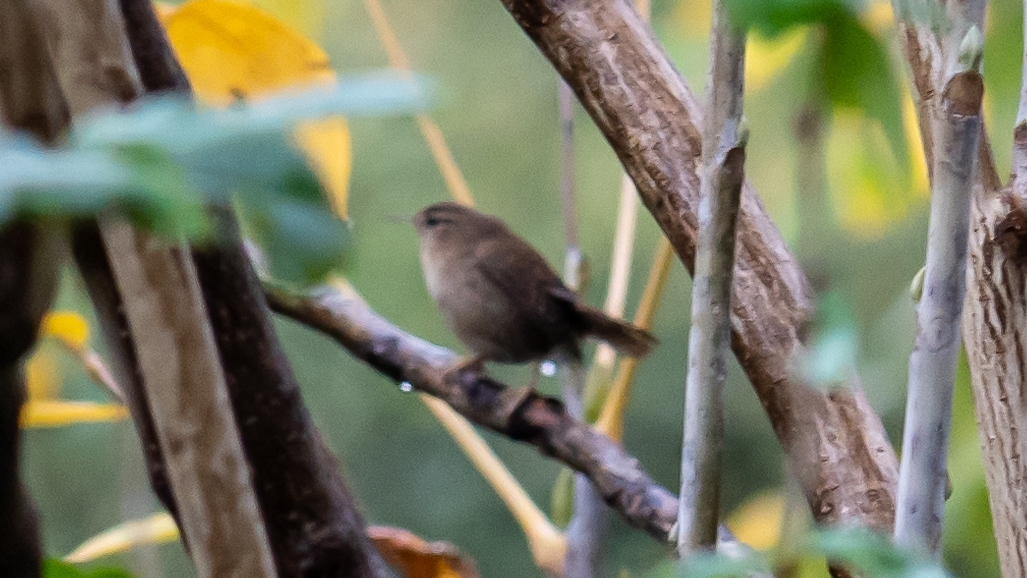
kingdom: Animalia
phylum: Chordata
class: Aves
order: Passeriformes
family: Troglodytidae
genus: Troglodytes
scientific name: Troglodytes troglodytes
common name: Eurasian wren
